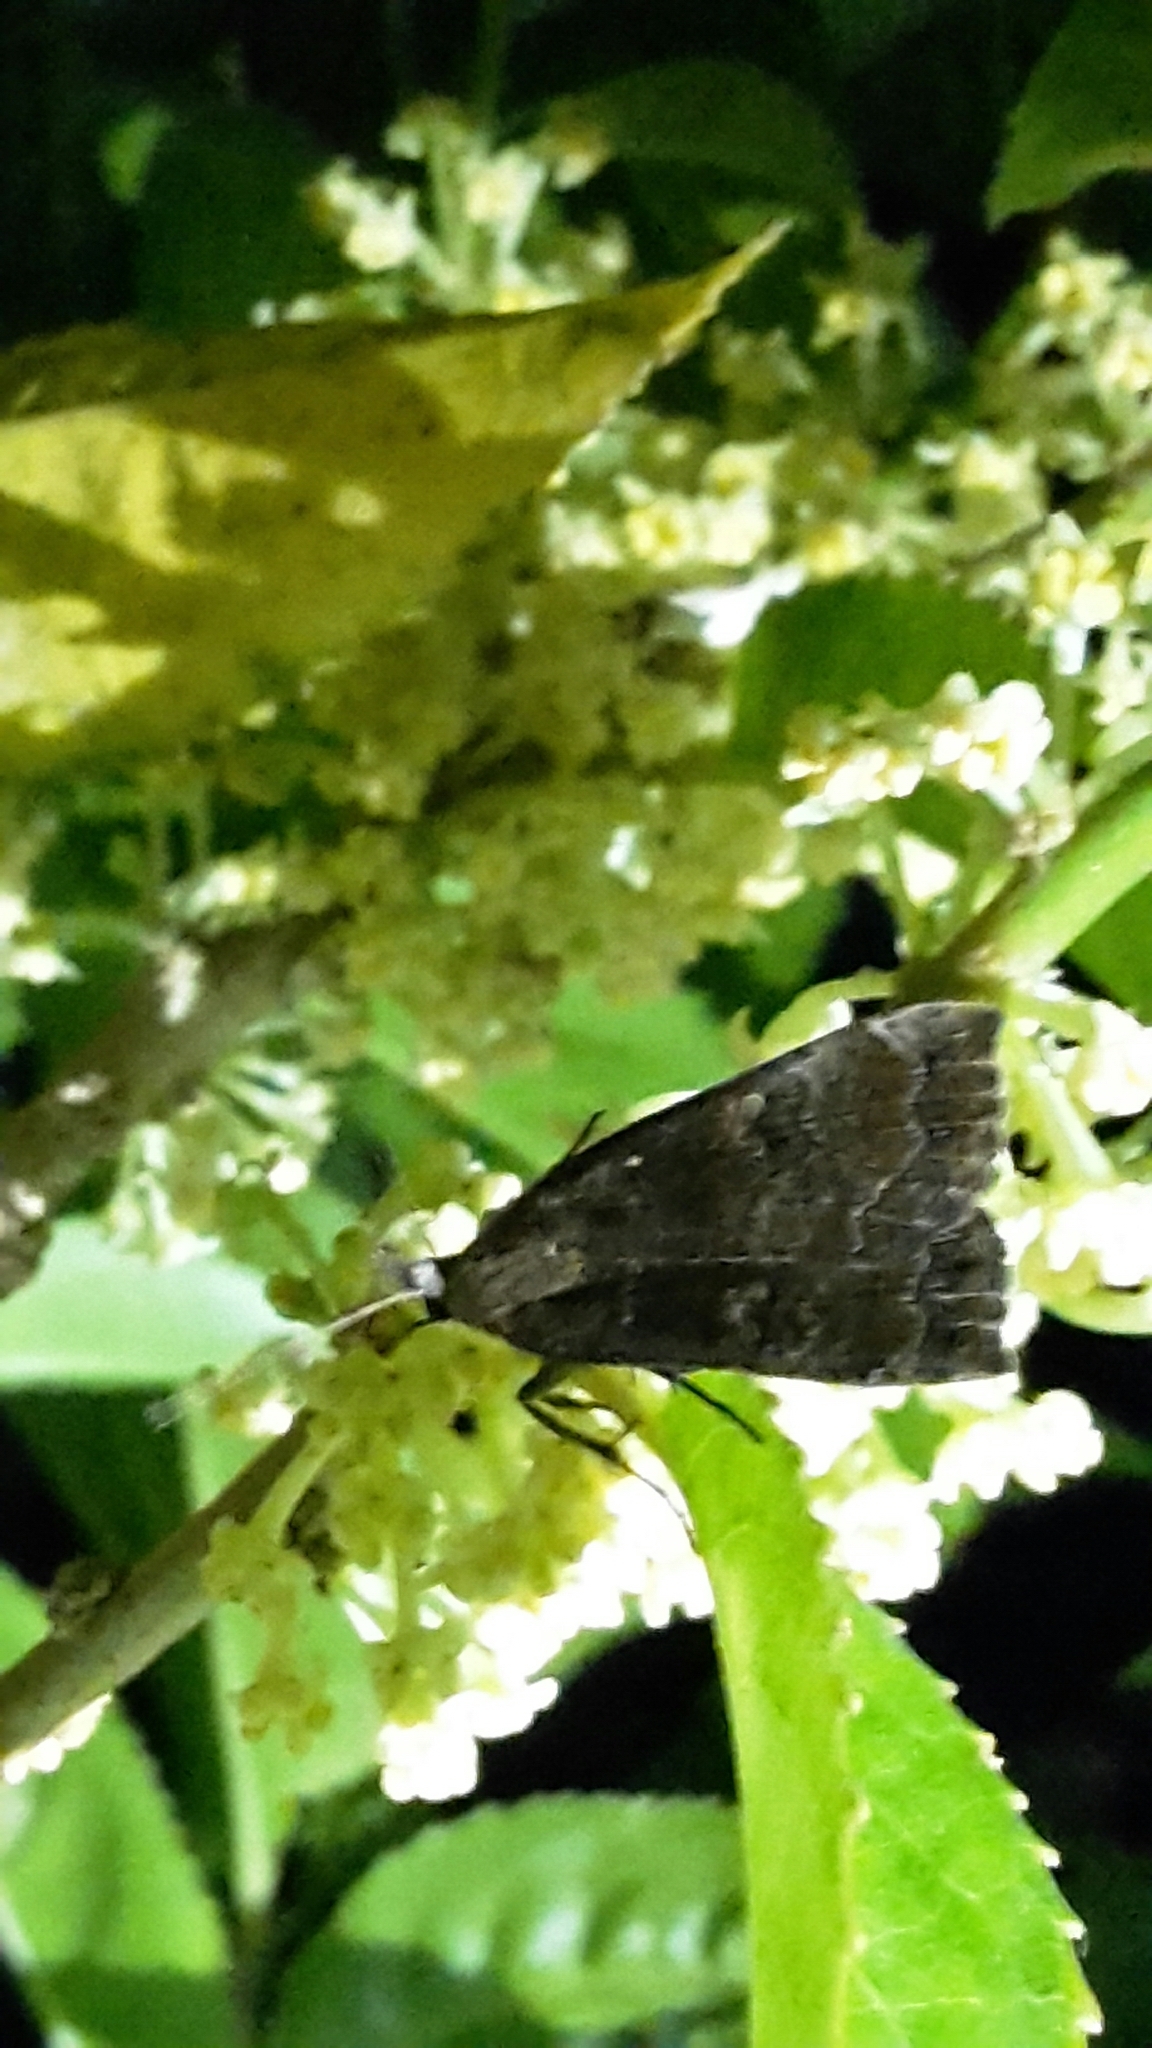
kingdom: Animalia
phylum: Arthropoda
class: Insecta
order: Lepidoptera
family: Erebidae
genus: Rhapsa
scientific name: Rhapsa scotosialis
